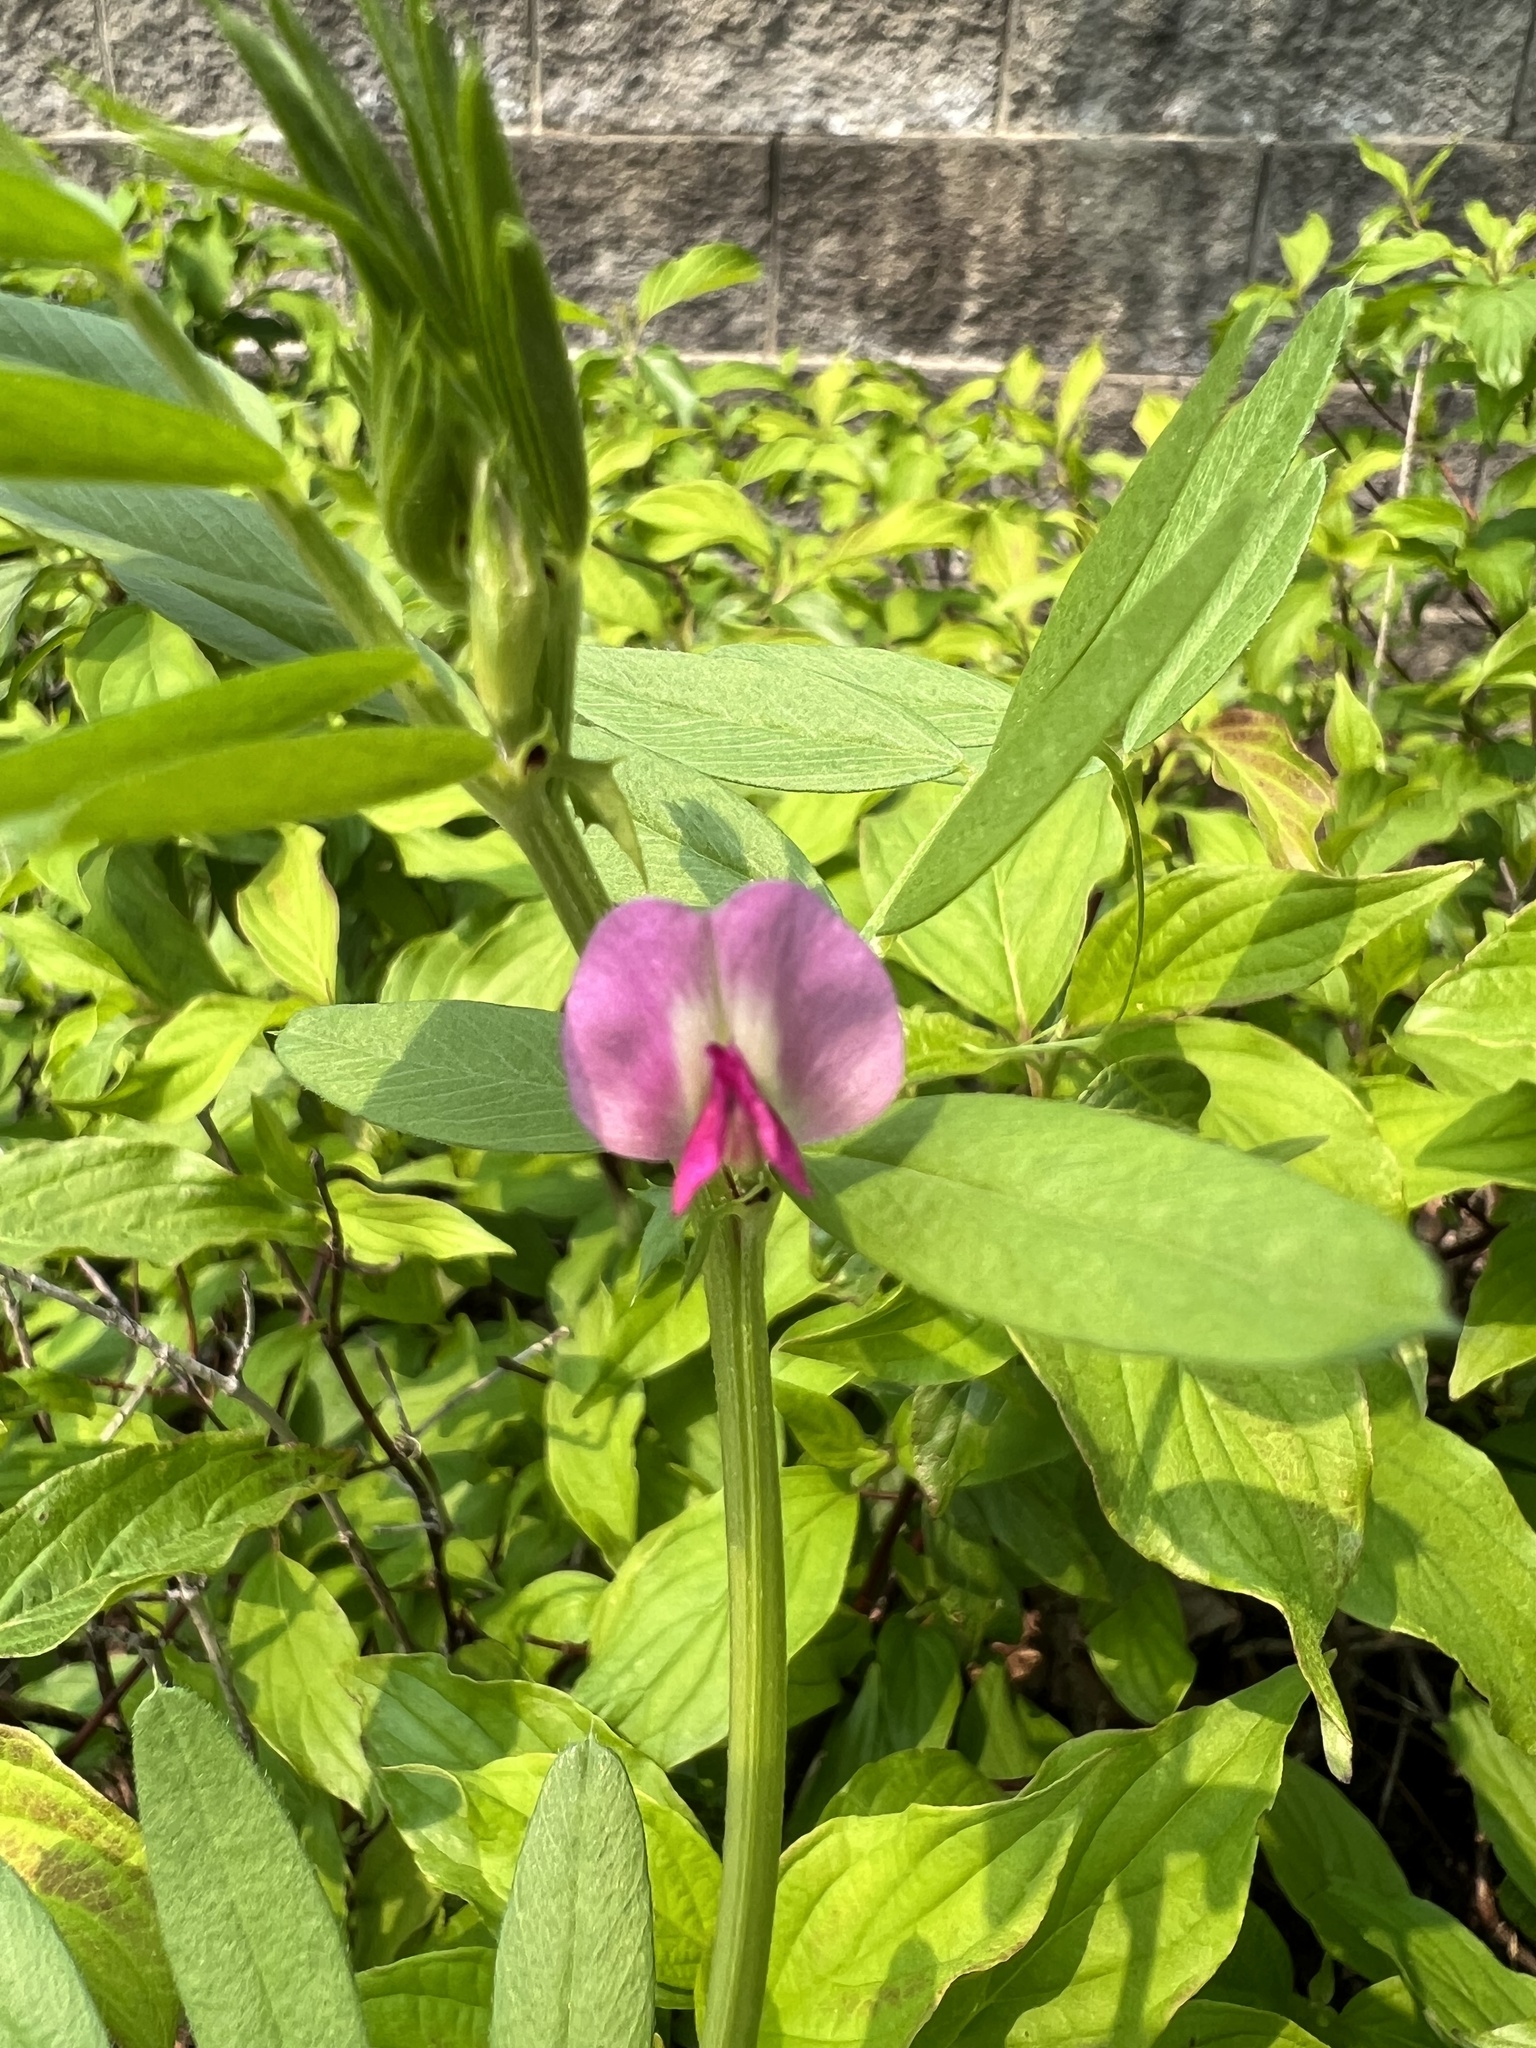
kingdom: Plantae
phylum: Tracheophyta
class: Magnoliopsida
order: Fabales
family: Fabaceae
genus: Vicia
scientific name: Vicia sativa
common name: Garden vetch
